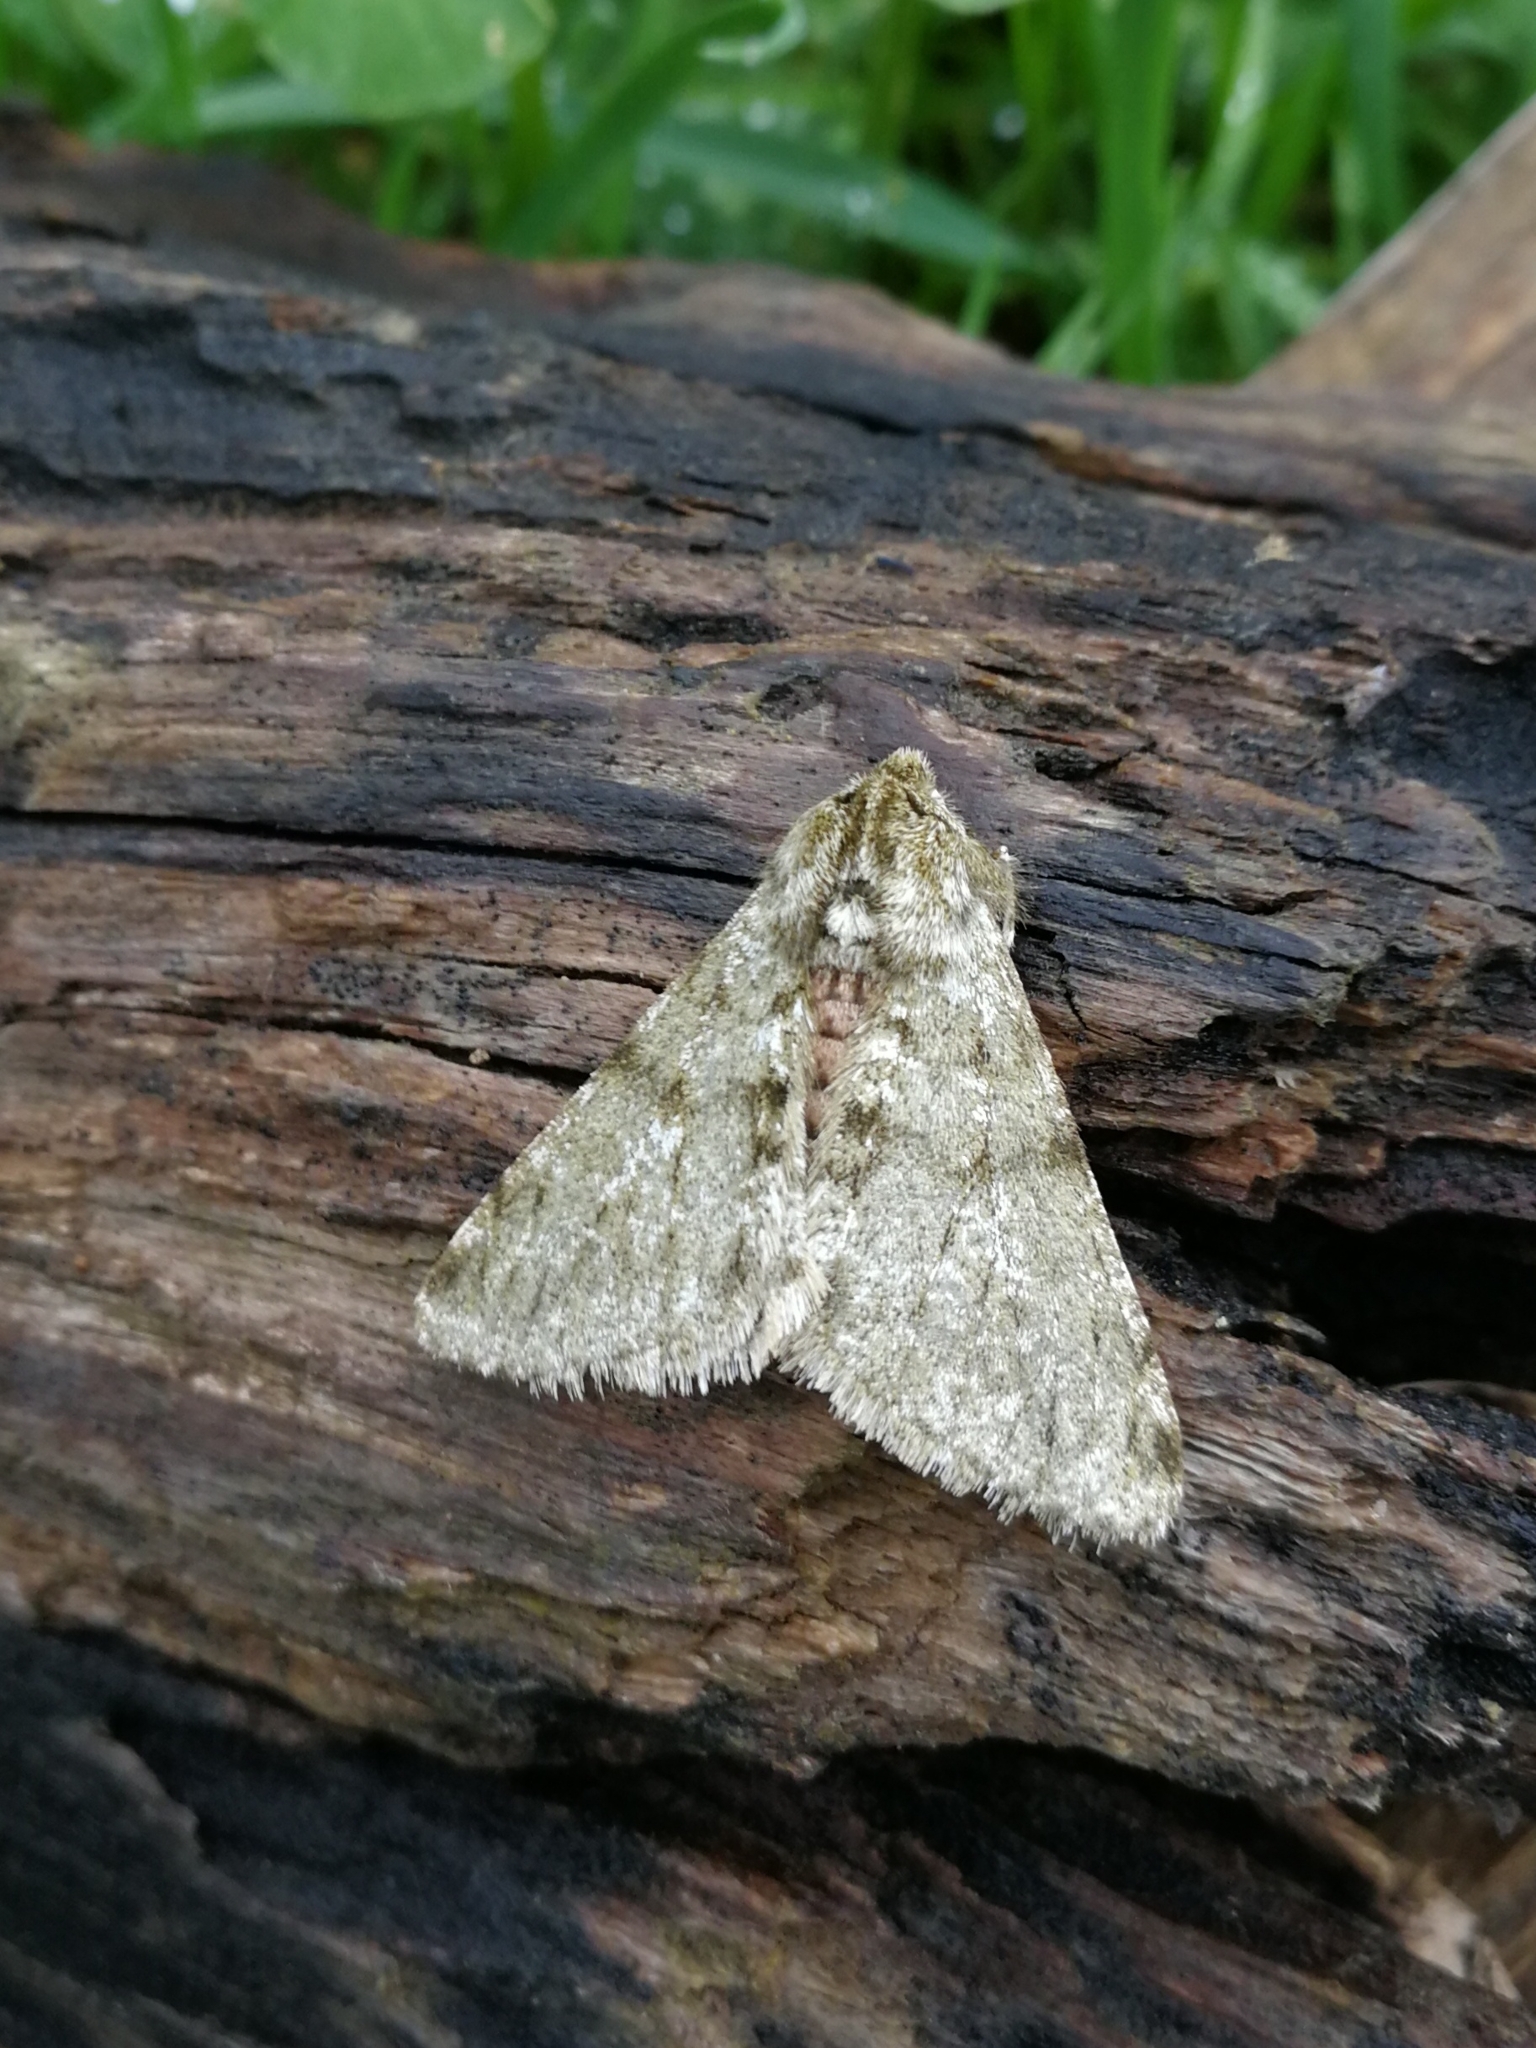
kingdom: Animalia
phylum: Arthropoda
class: Insecta
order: Lepidoptera
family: Geometridae
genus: Phigalia
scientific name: Phigalia pilosaria
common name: Pale brindled beauty
